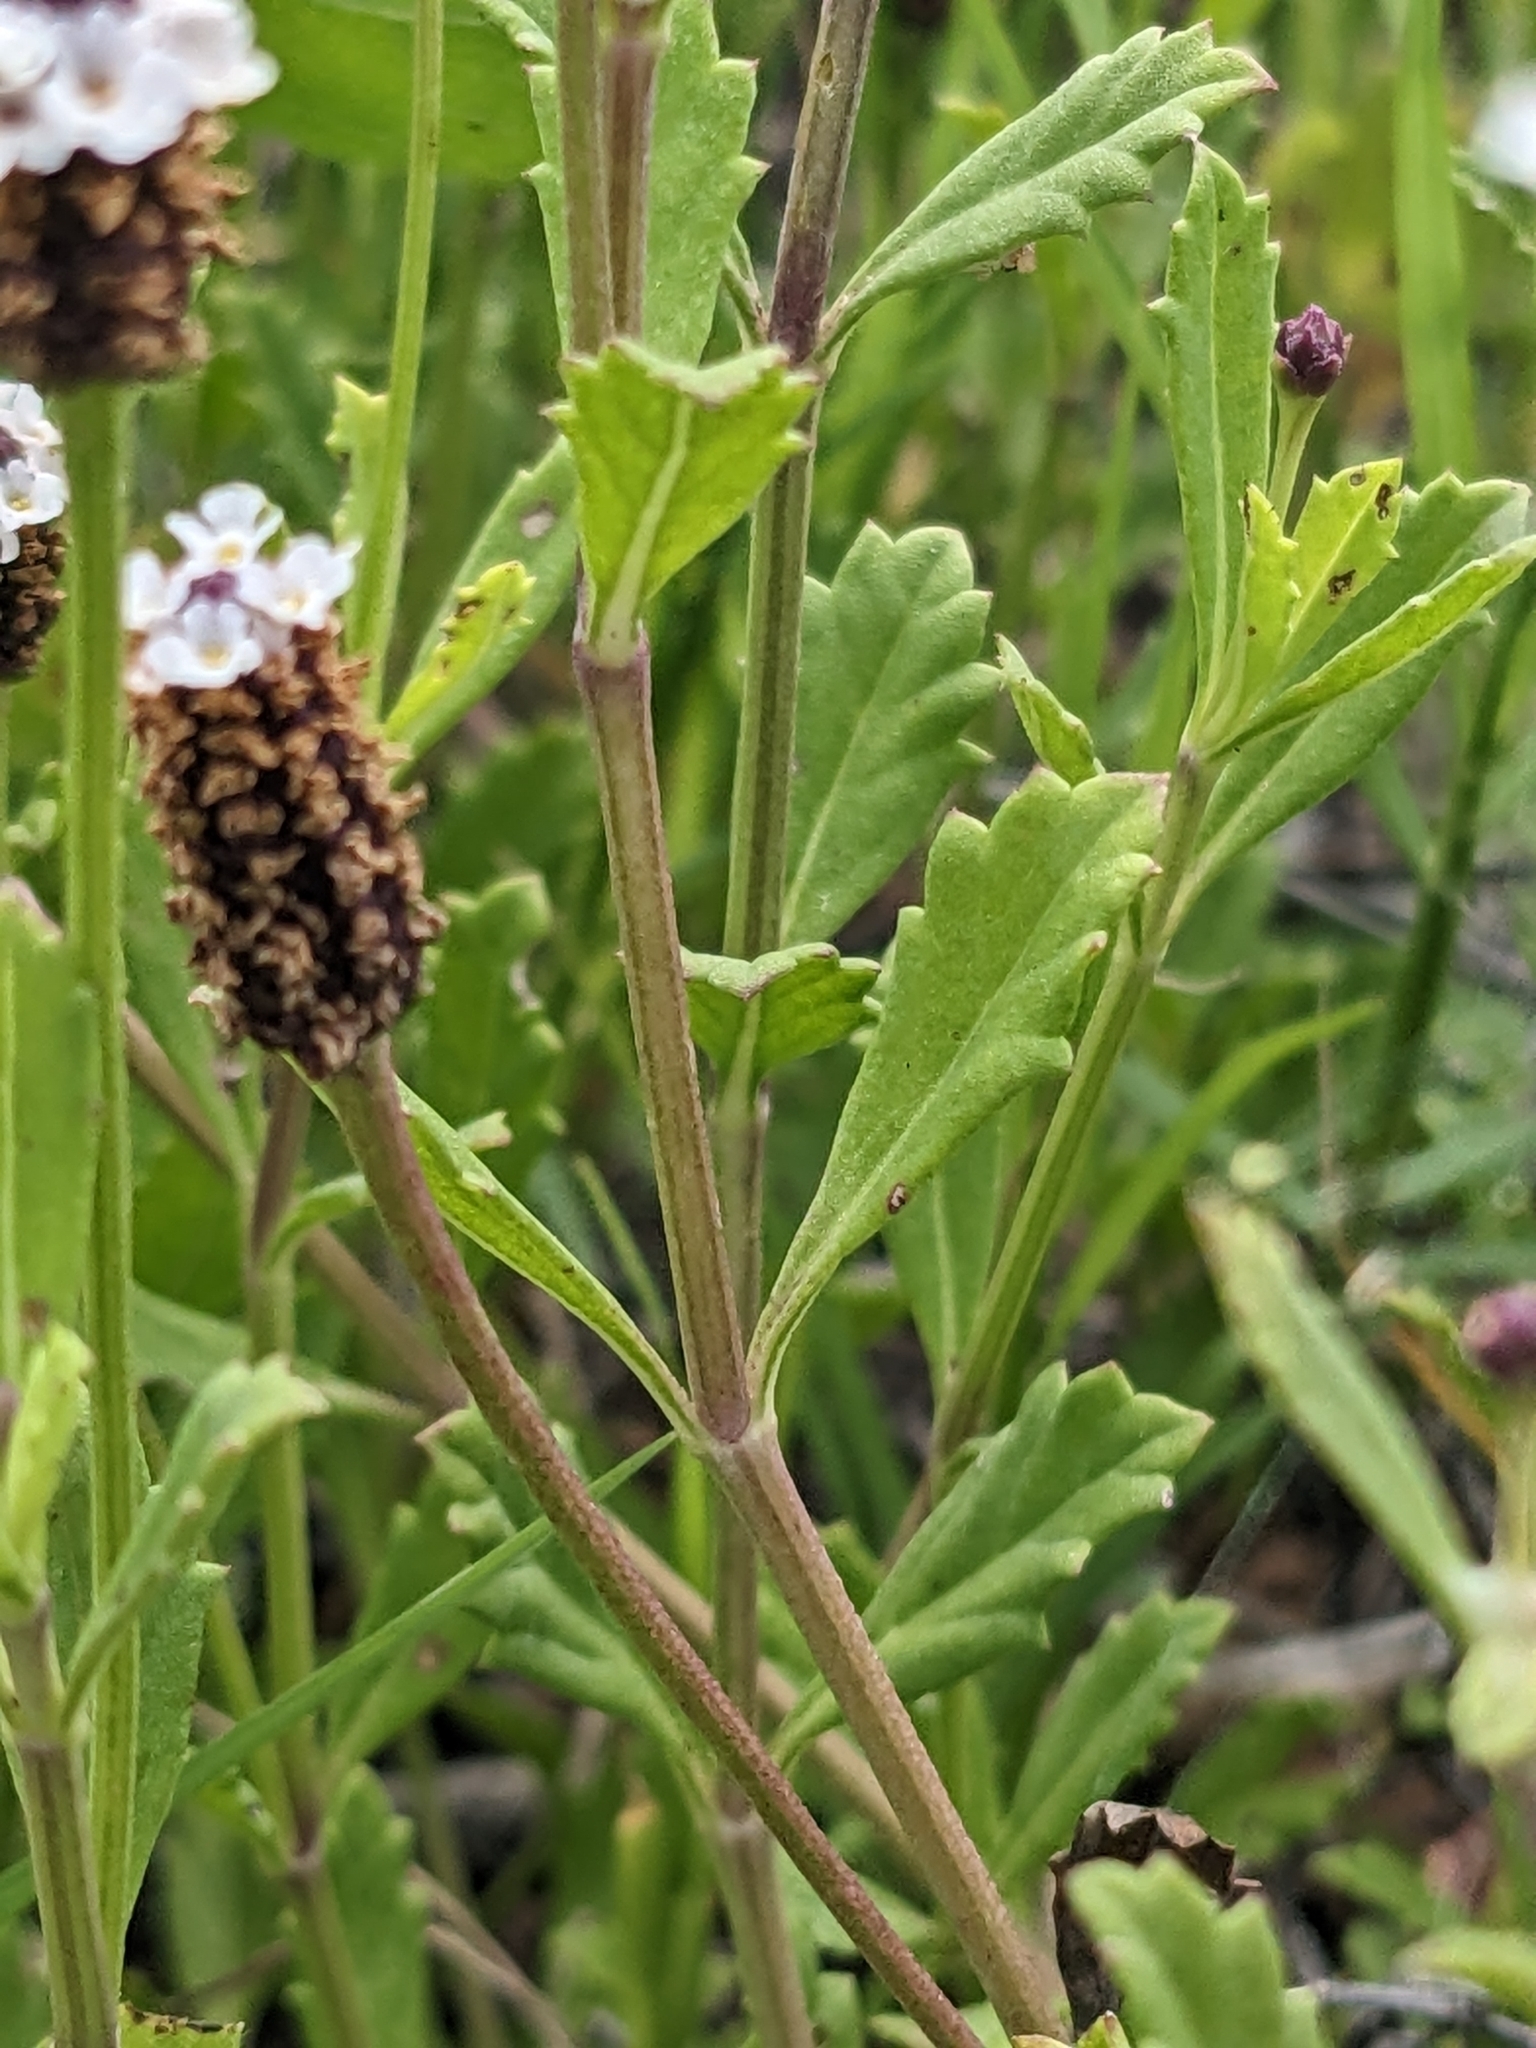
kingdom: Plantae
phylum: Tracheophyta
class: Magnoliopsida
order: Lamiales
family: Verbenaceae
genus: Phyla
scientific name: Phyla nodiflora
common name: Frogfruit
